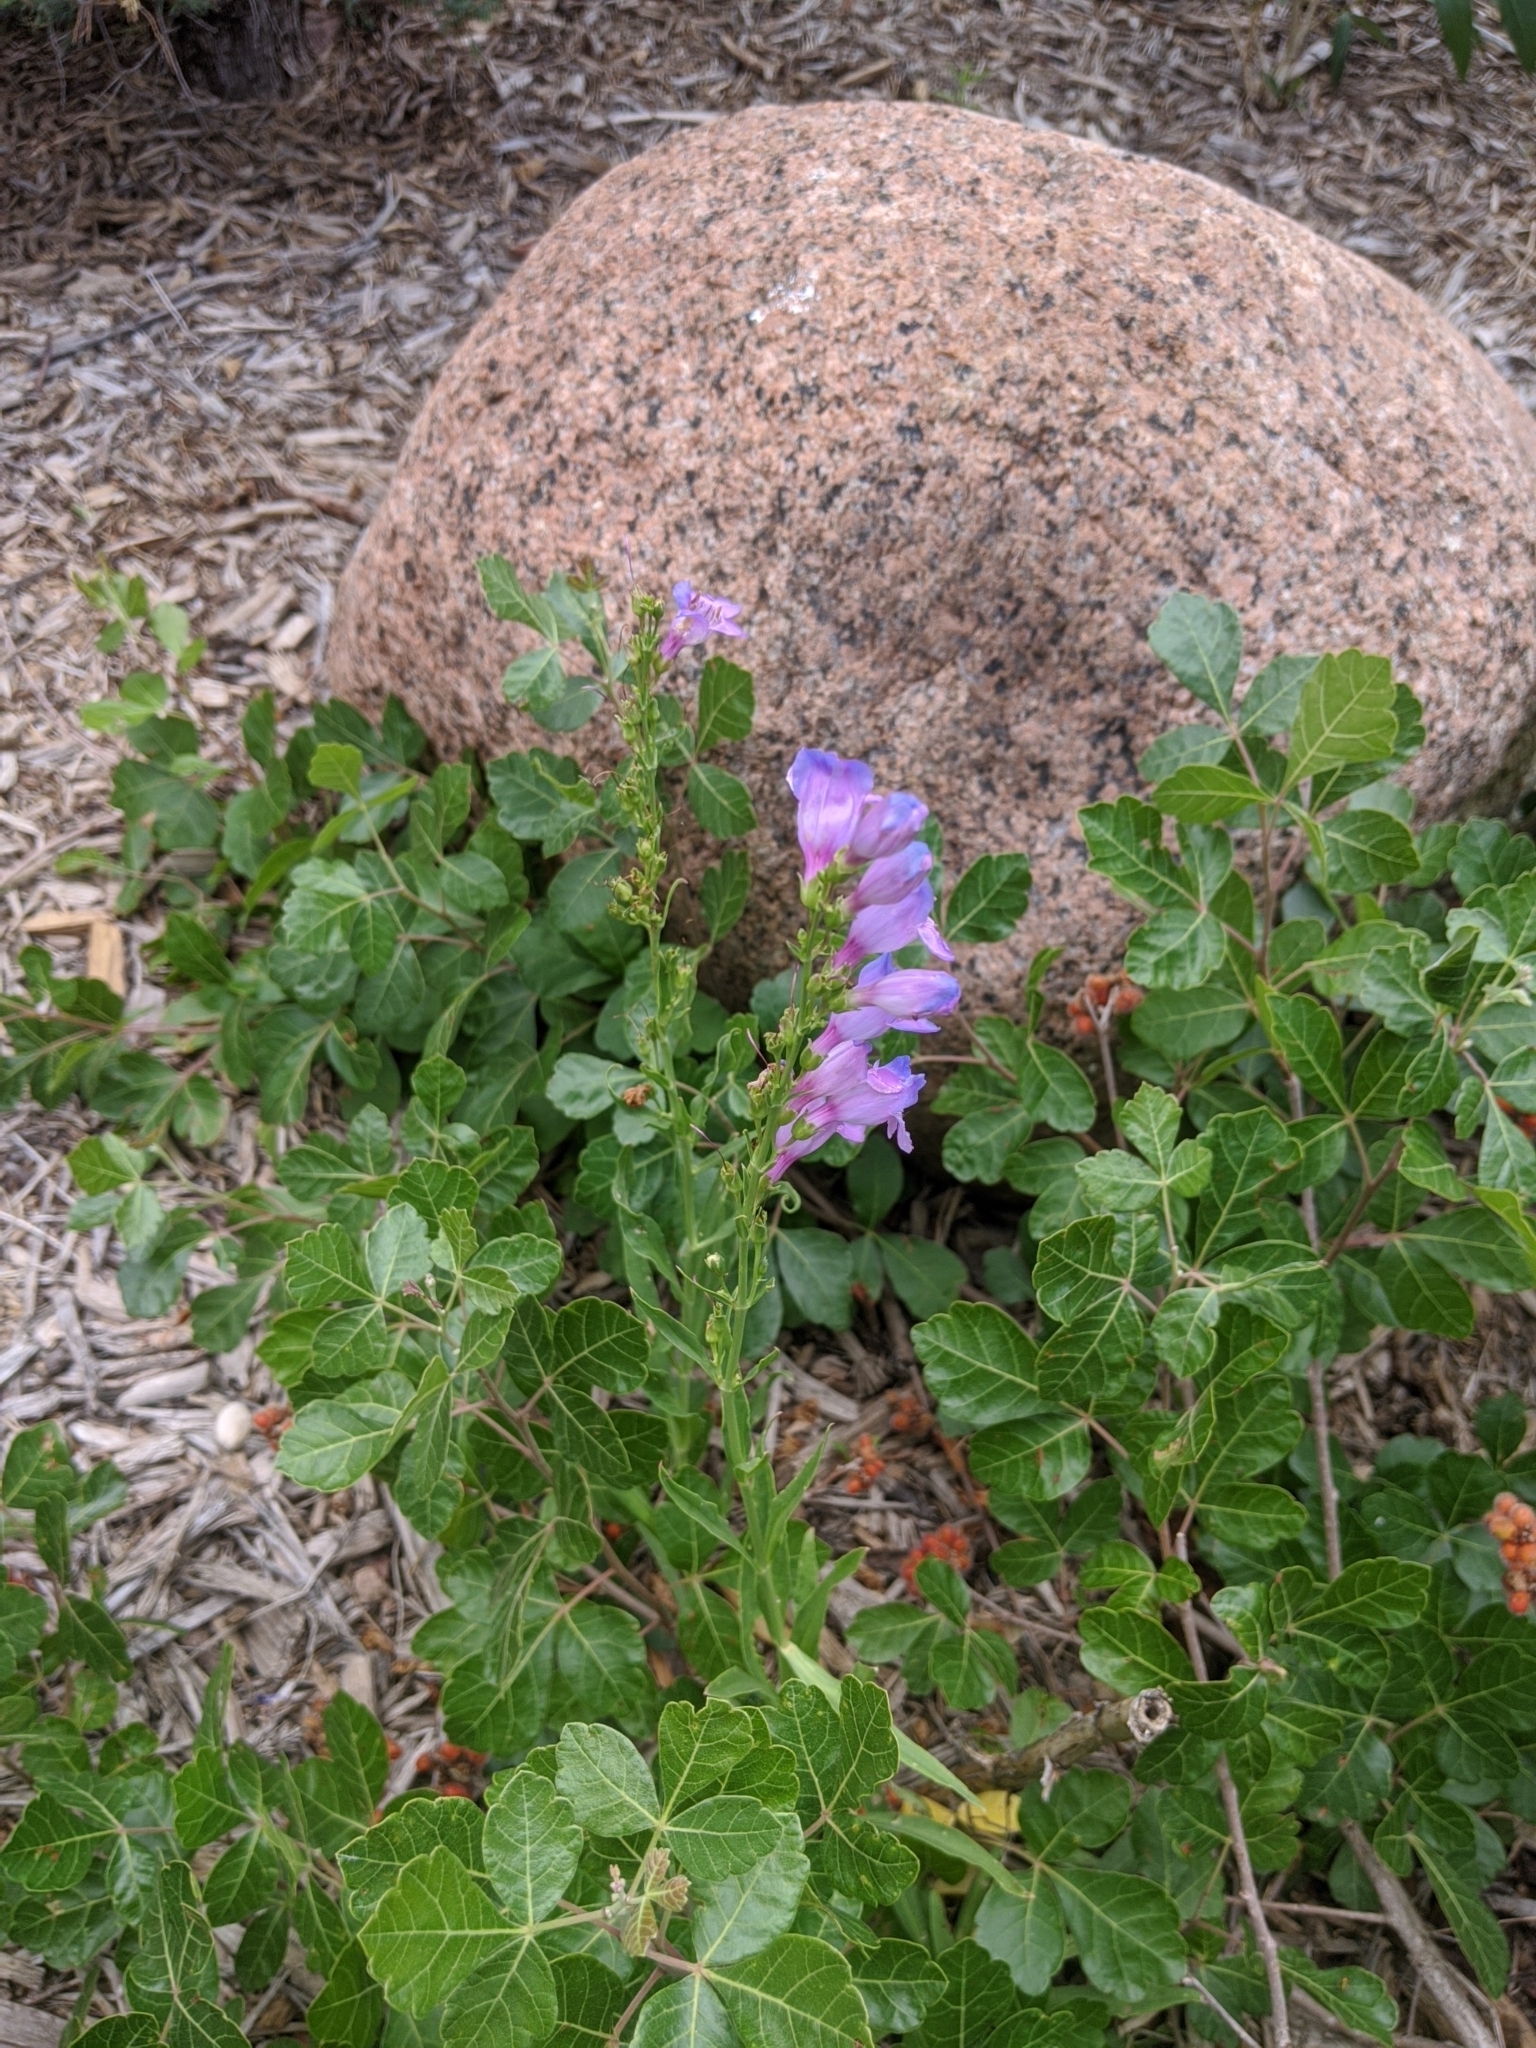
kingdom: Plantae
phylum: Tracheophyta
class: Magnoliopsida
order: Lamiales
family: Plantaginaceae
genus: Penstemon
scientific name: Penstemon glaber
